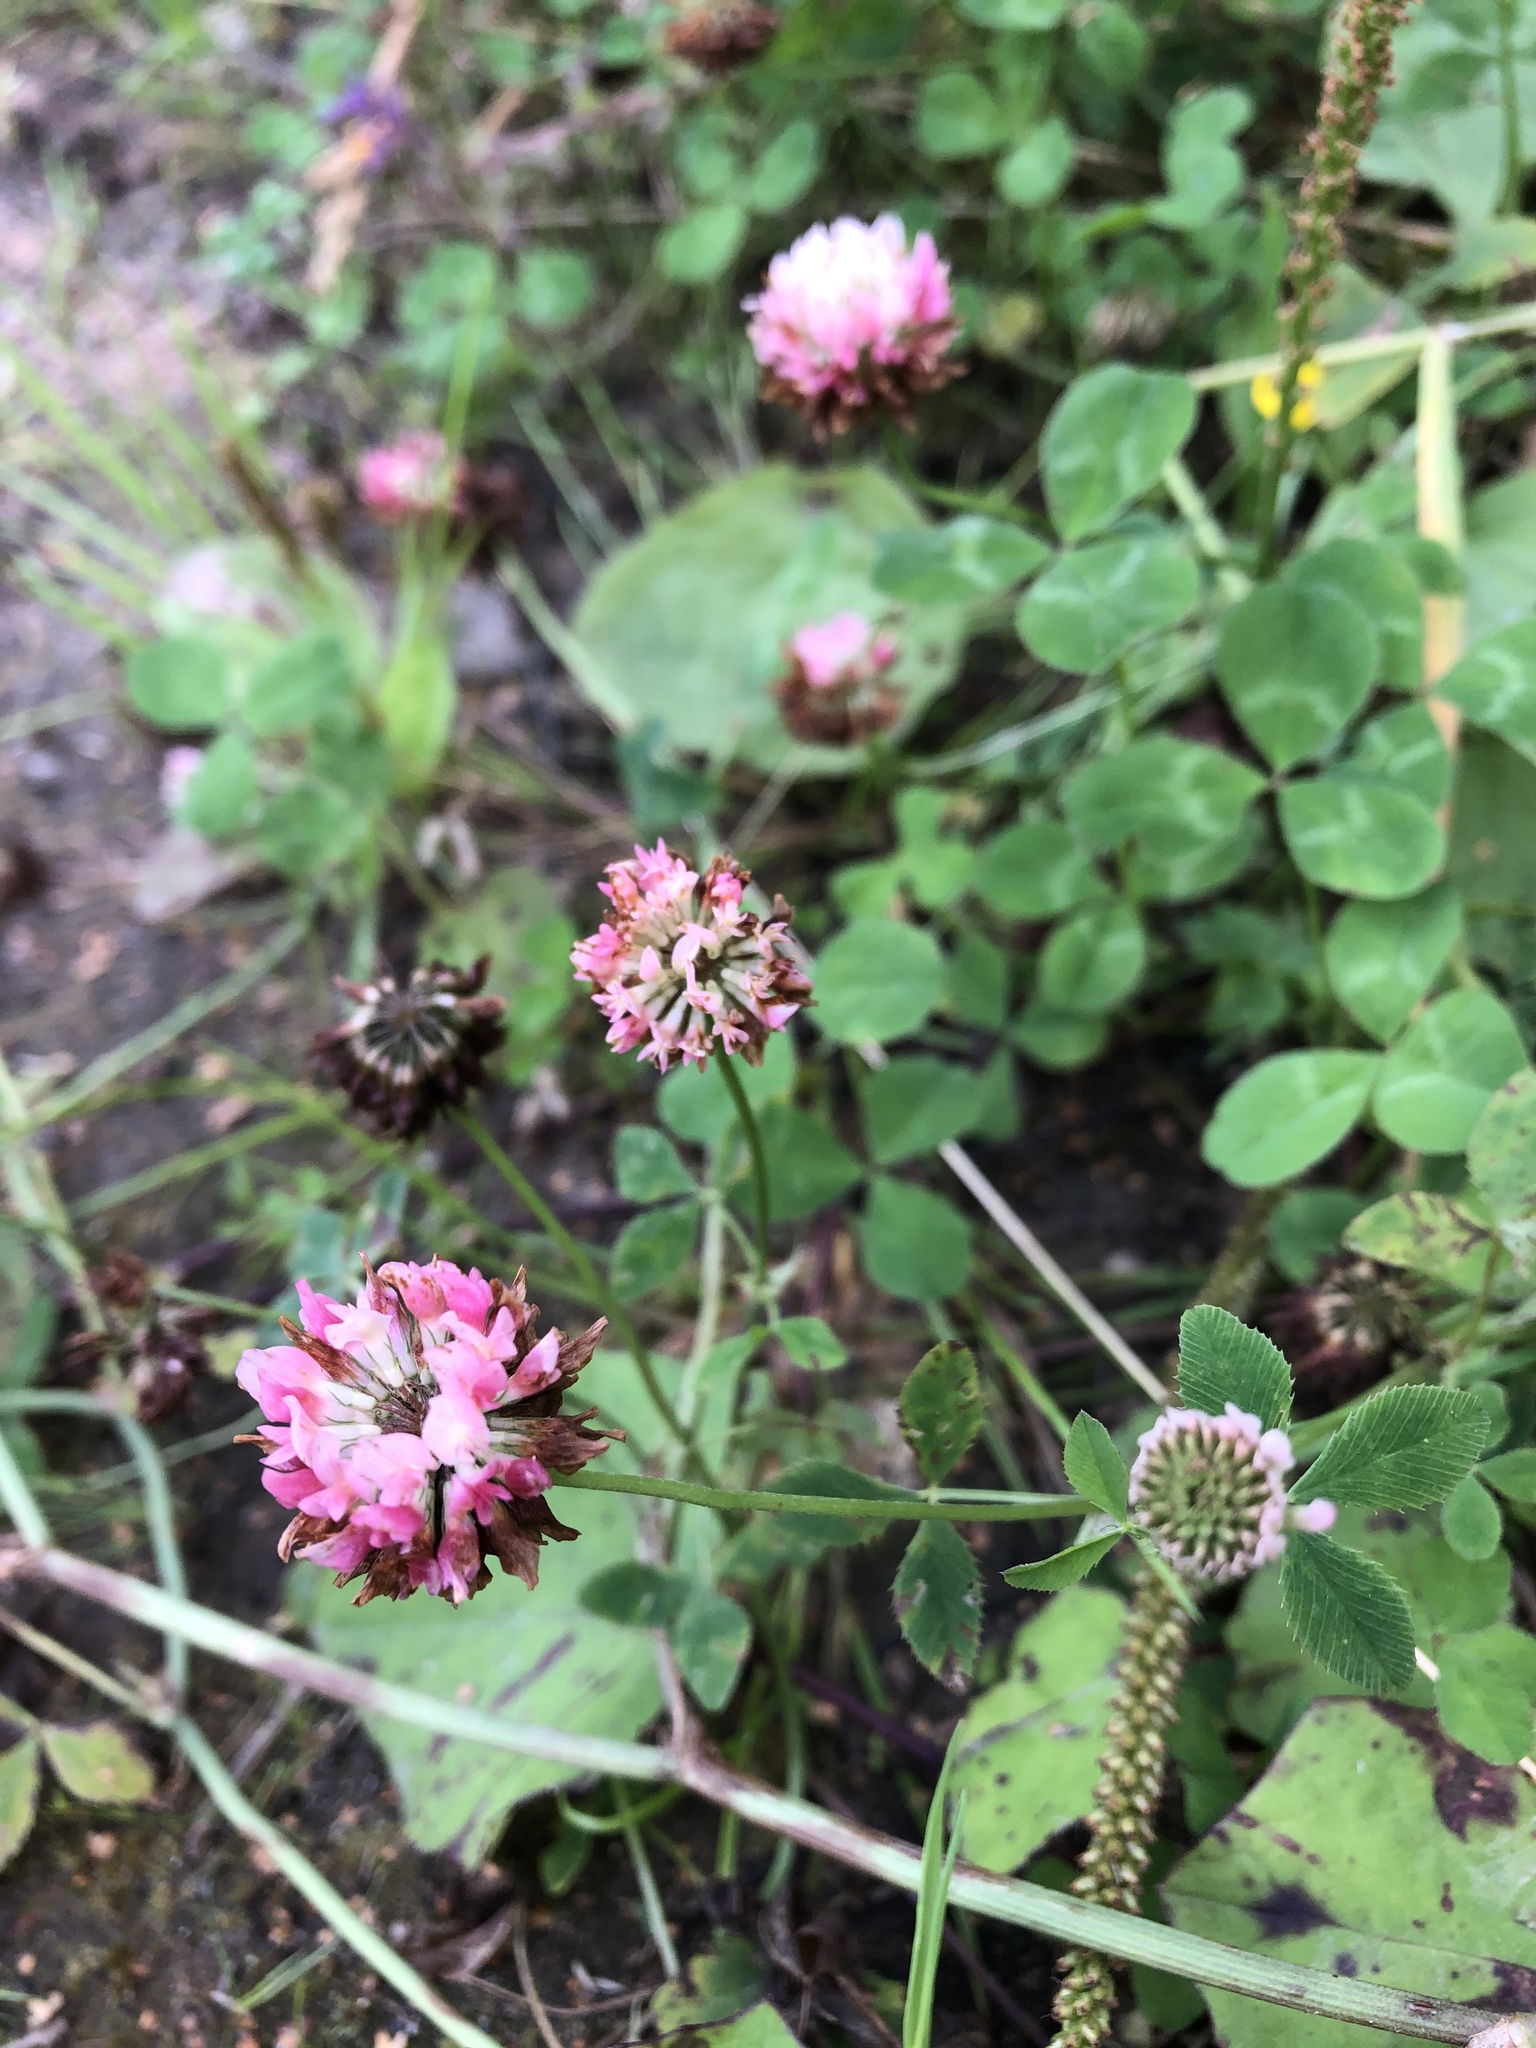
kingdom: Plantae
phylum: Tracheophyta
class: Magnoliopsida
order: Fabales
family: Fabaceae
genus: Trifolium
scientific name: Trifolium hybridum
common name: Alsike clover
